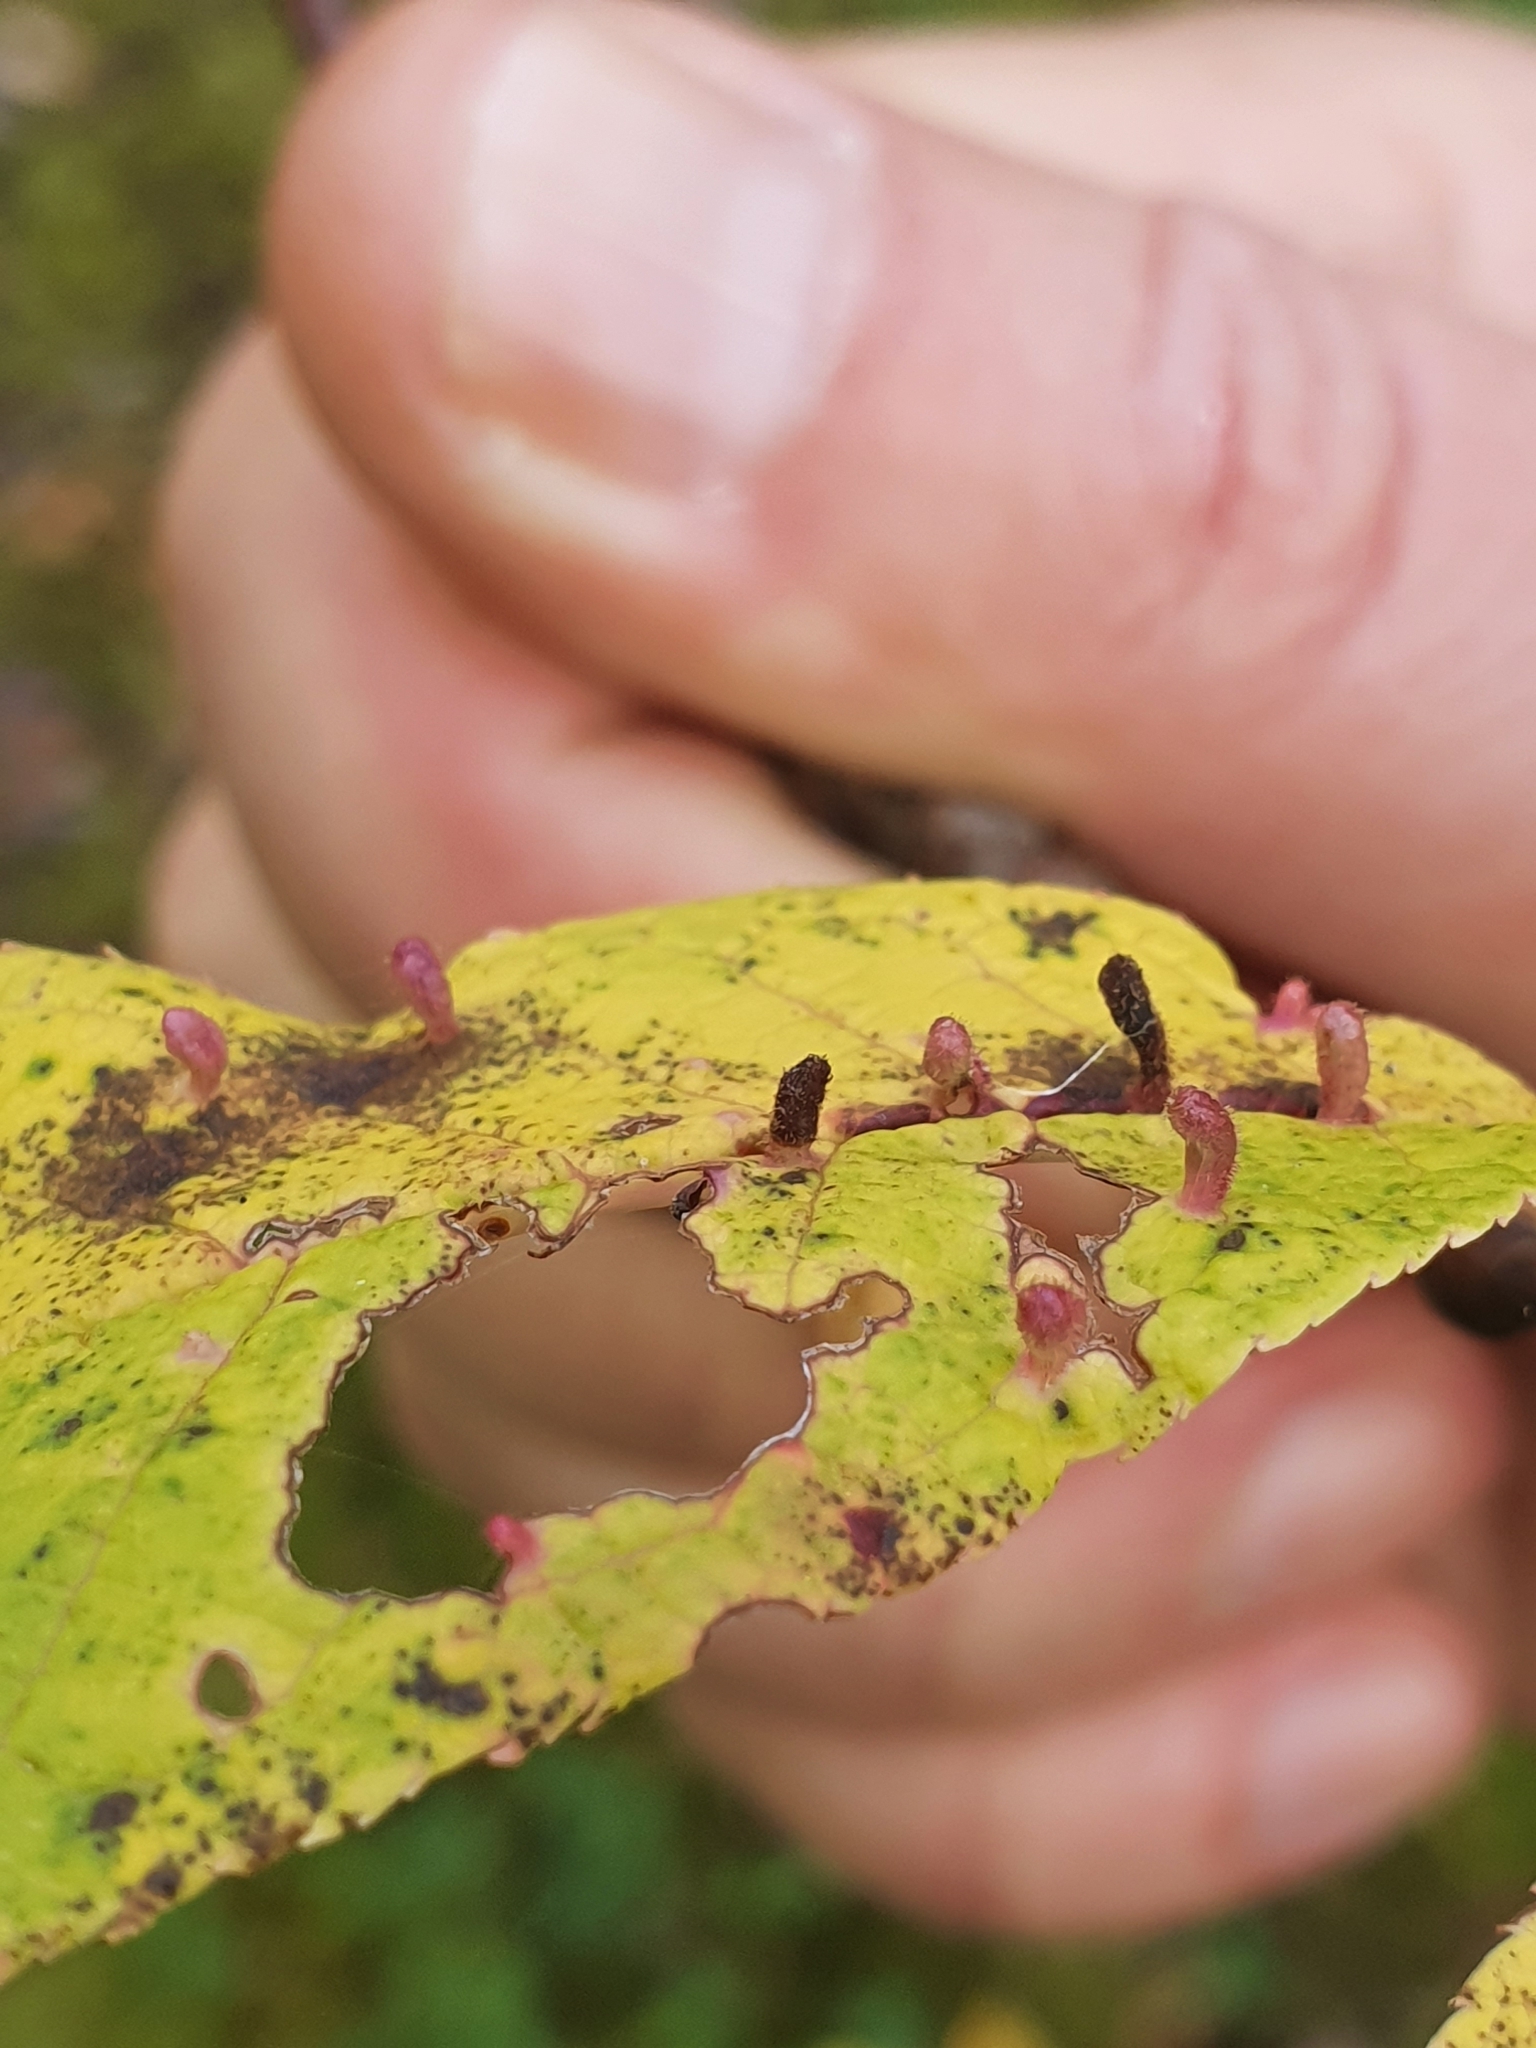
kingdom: Animalia
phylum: Arthropoda
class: Arachnida
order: Trombidiformes
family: Eriophyidae
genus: Phyllocoptes
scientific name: Phyllocoptes eupadi
